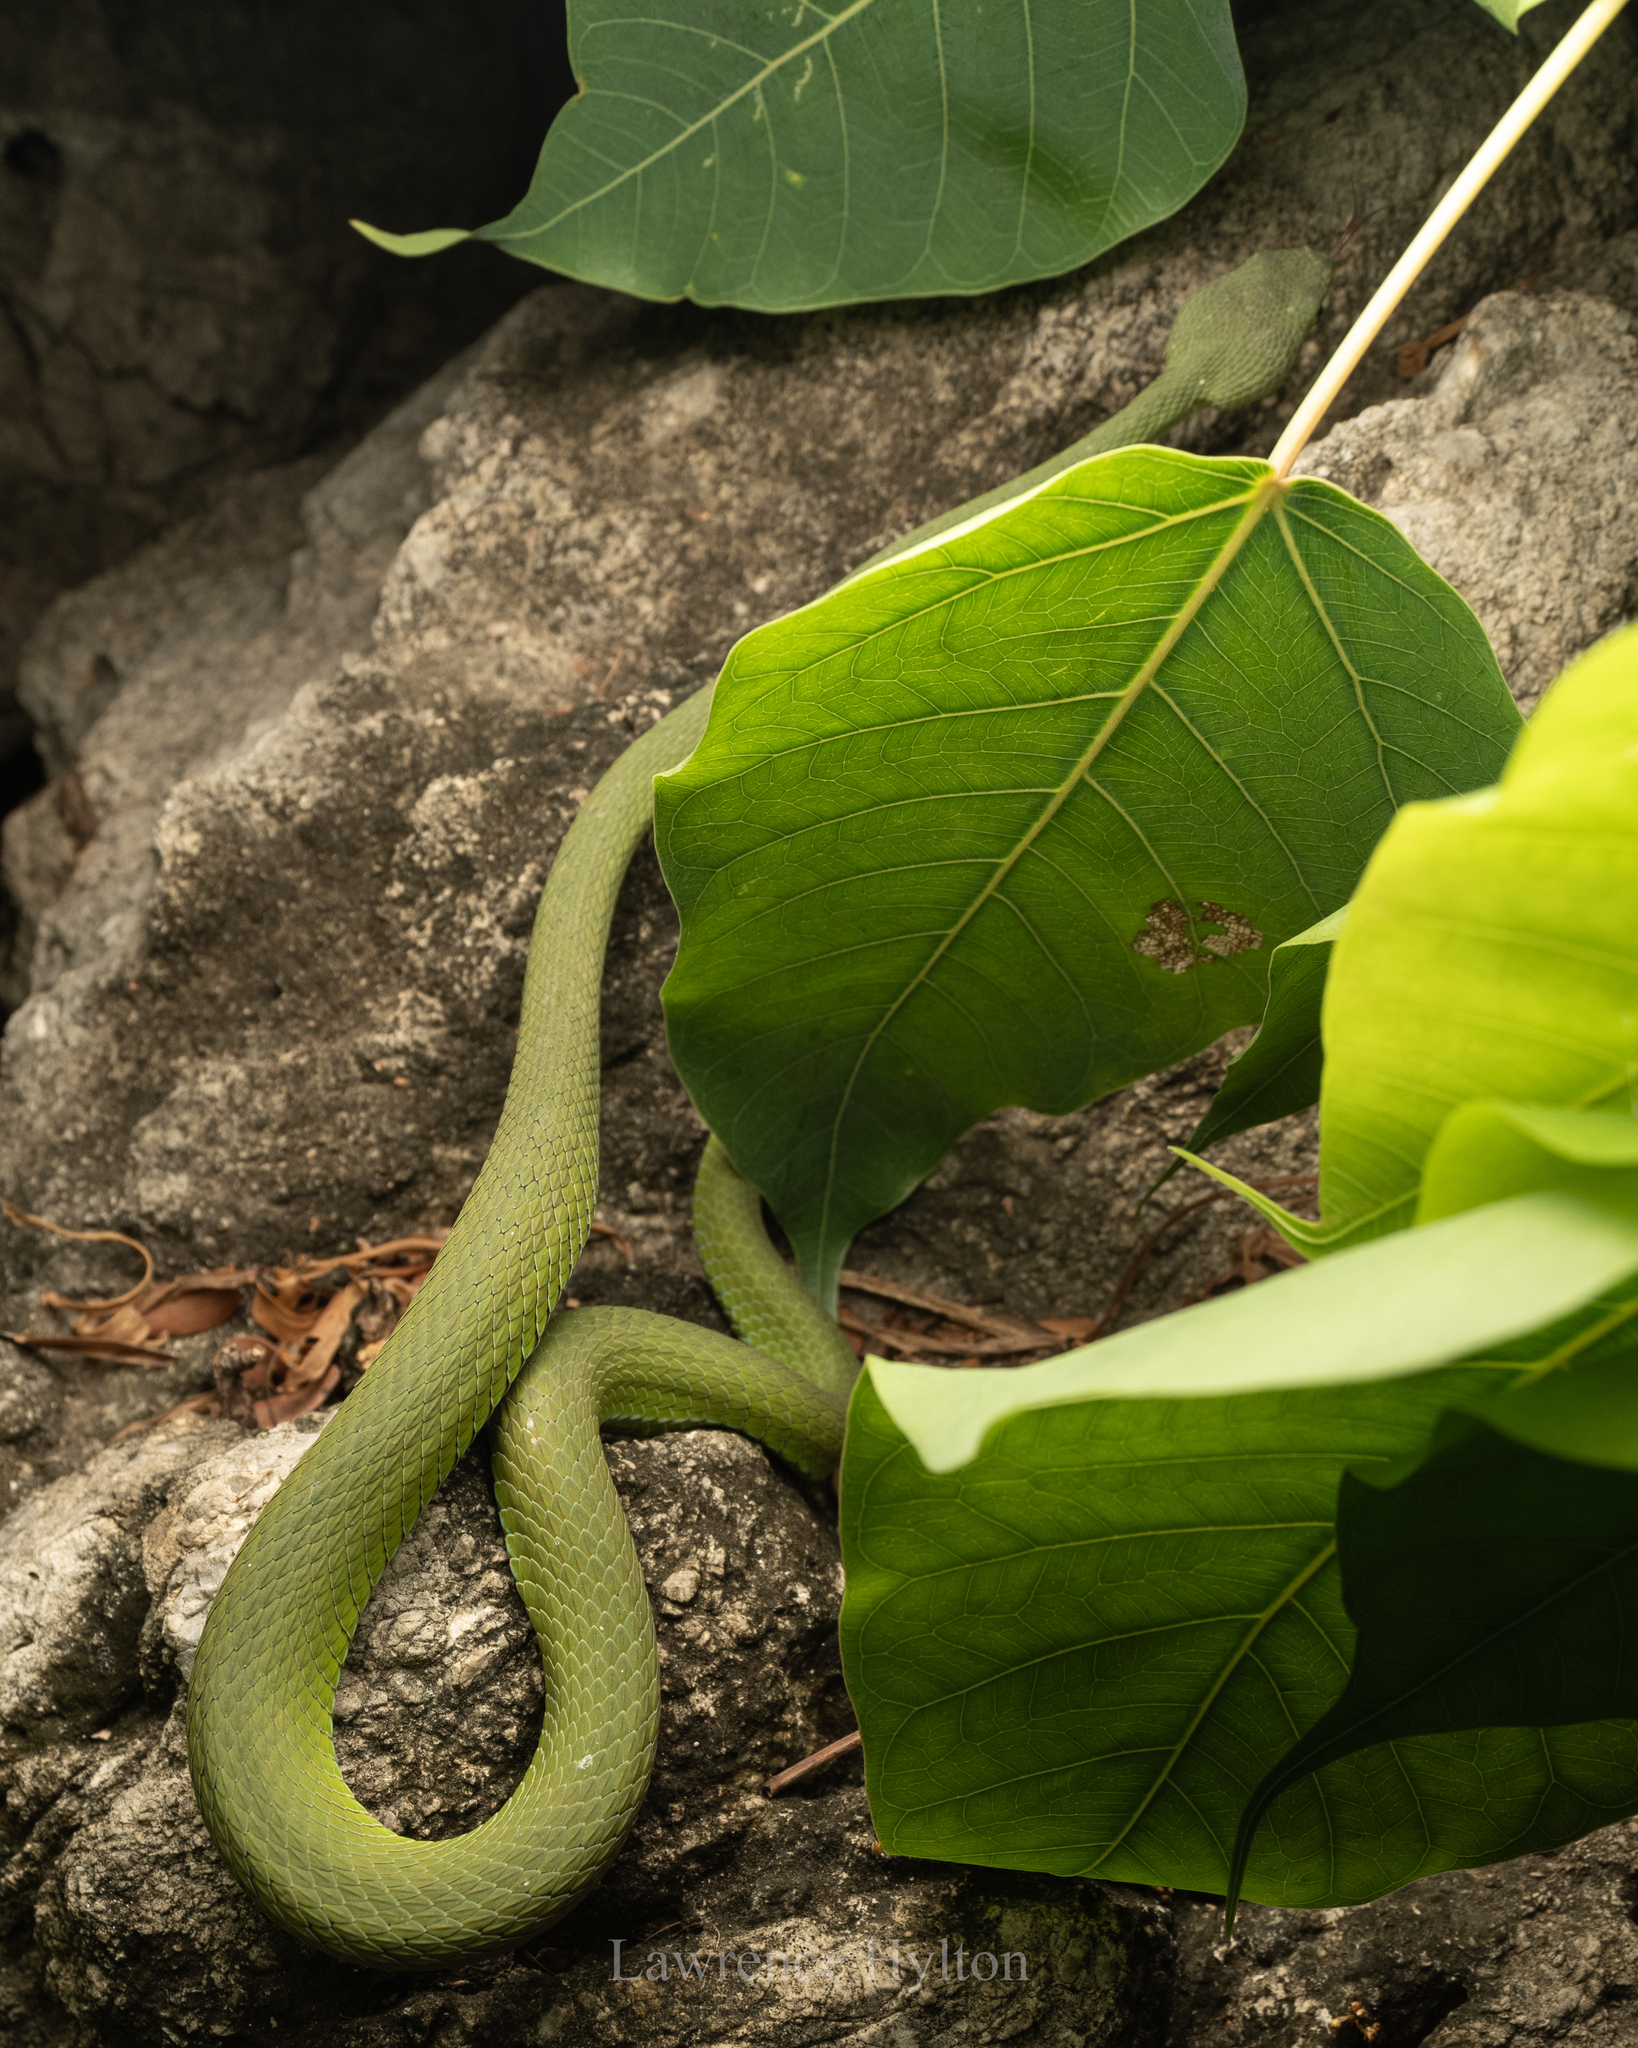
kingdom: Animalia
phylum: Chordata
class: Squamata
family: Viperidae
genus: Trimeresurus
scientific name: Trimeresurus macrops
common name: Kramer's pit viper
